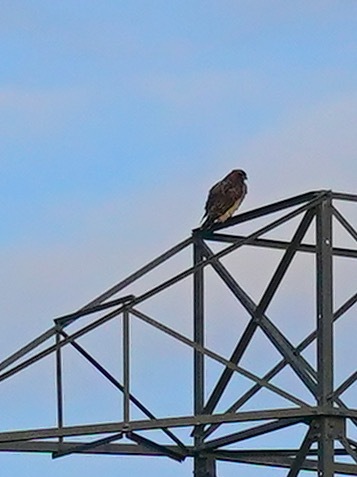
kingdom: Animalia
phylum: Chordata
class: Aves
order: Accipitriformes
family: Accipitridae
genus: Buteo
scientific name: Buteo jamaicensis
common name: Red-tailed hawk
